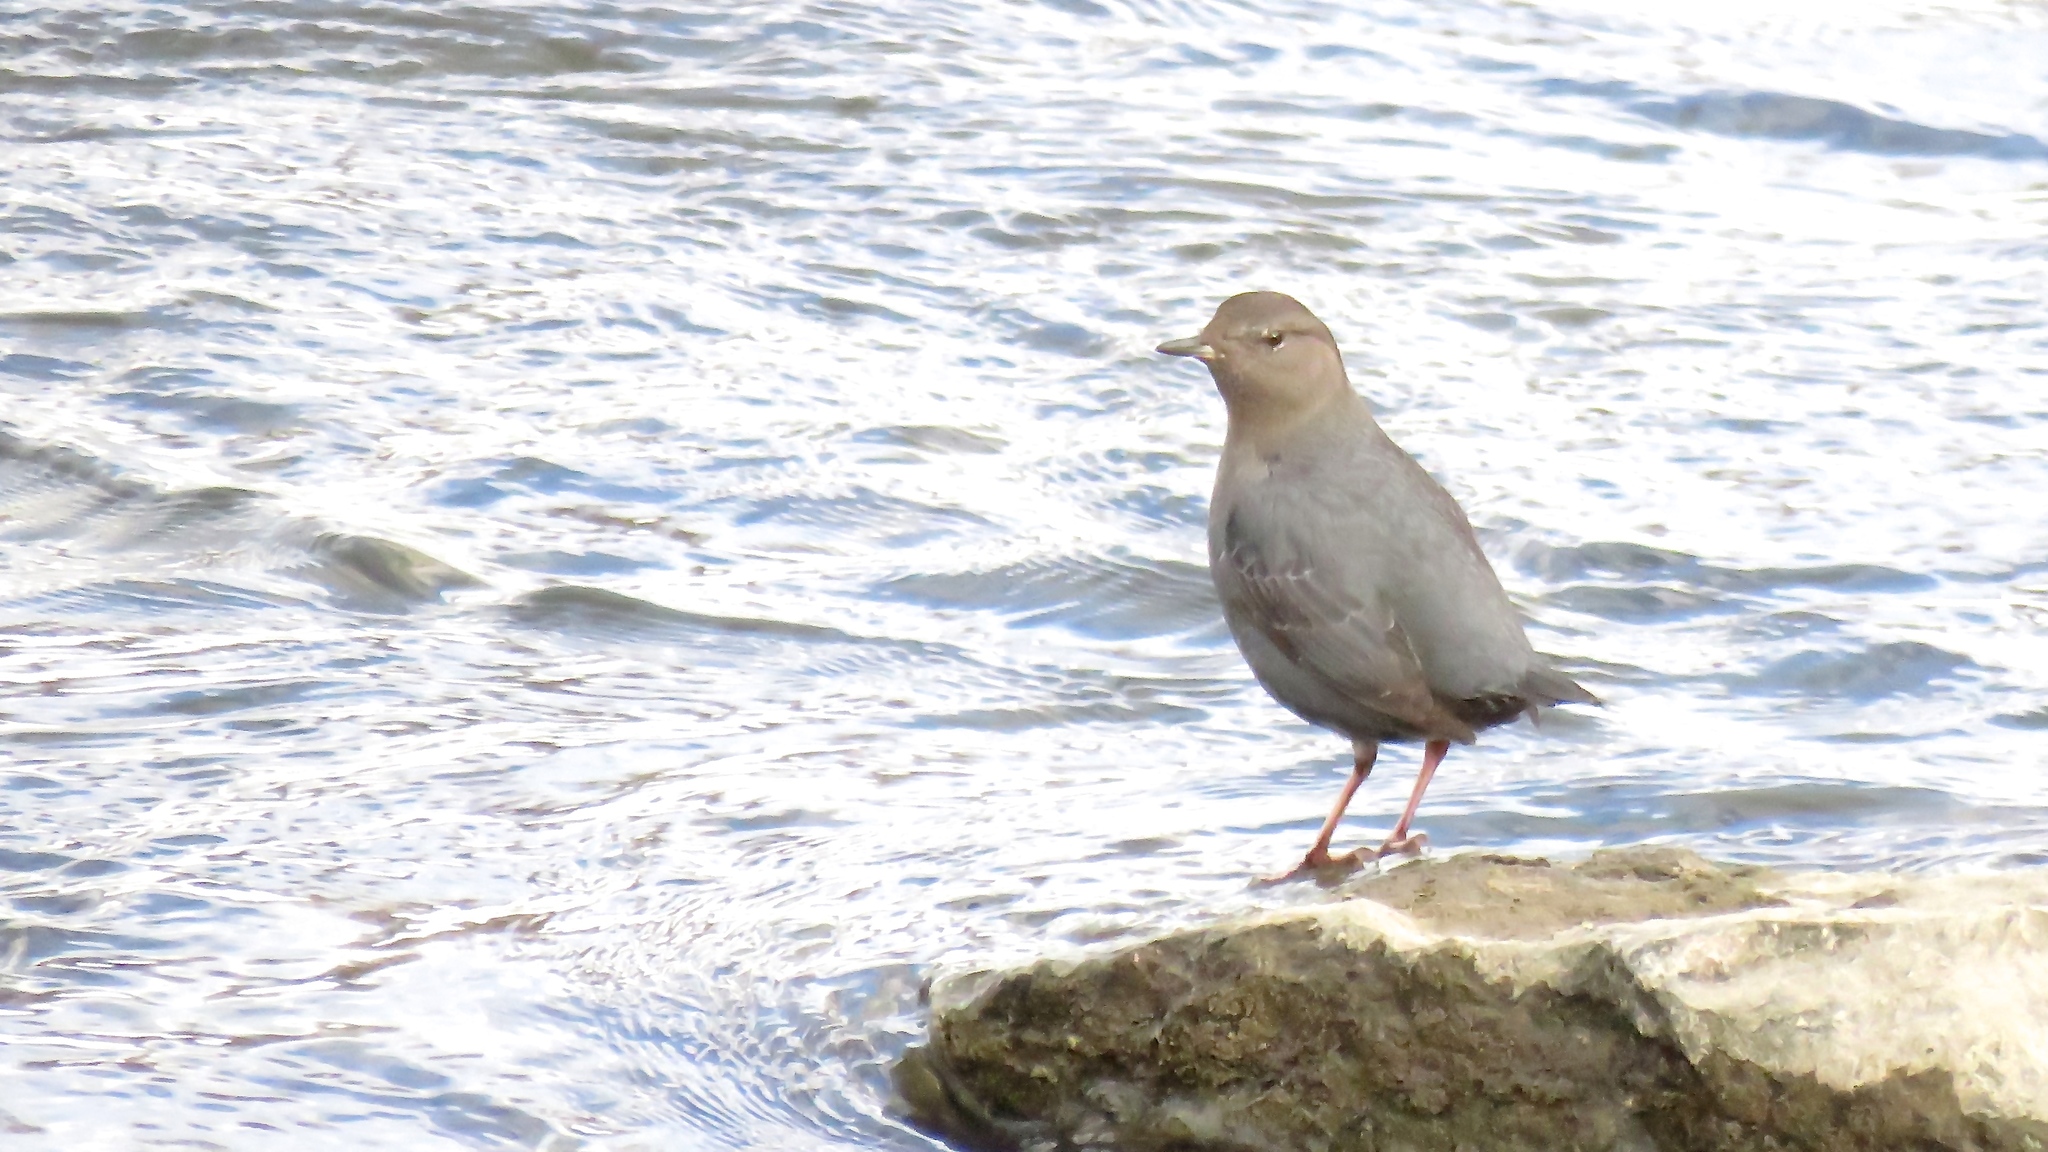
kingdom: Animalia
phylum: Chordata
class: Aves
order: Passeriformes
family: Cinclidae
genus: Cinclus
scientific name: Cinclus mexicanus
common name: American dipper
